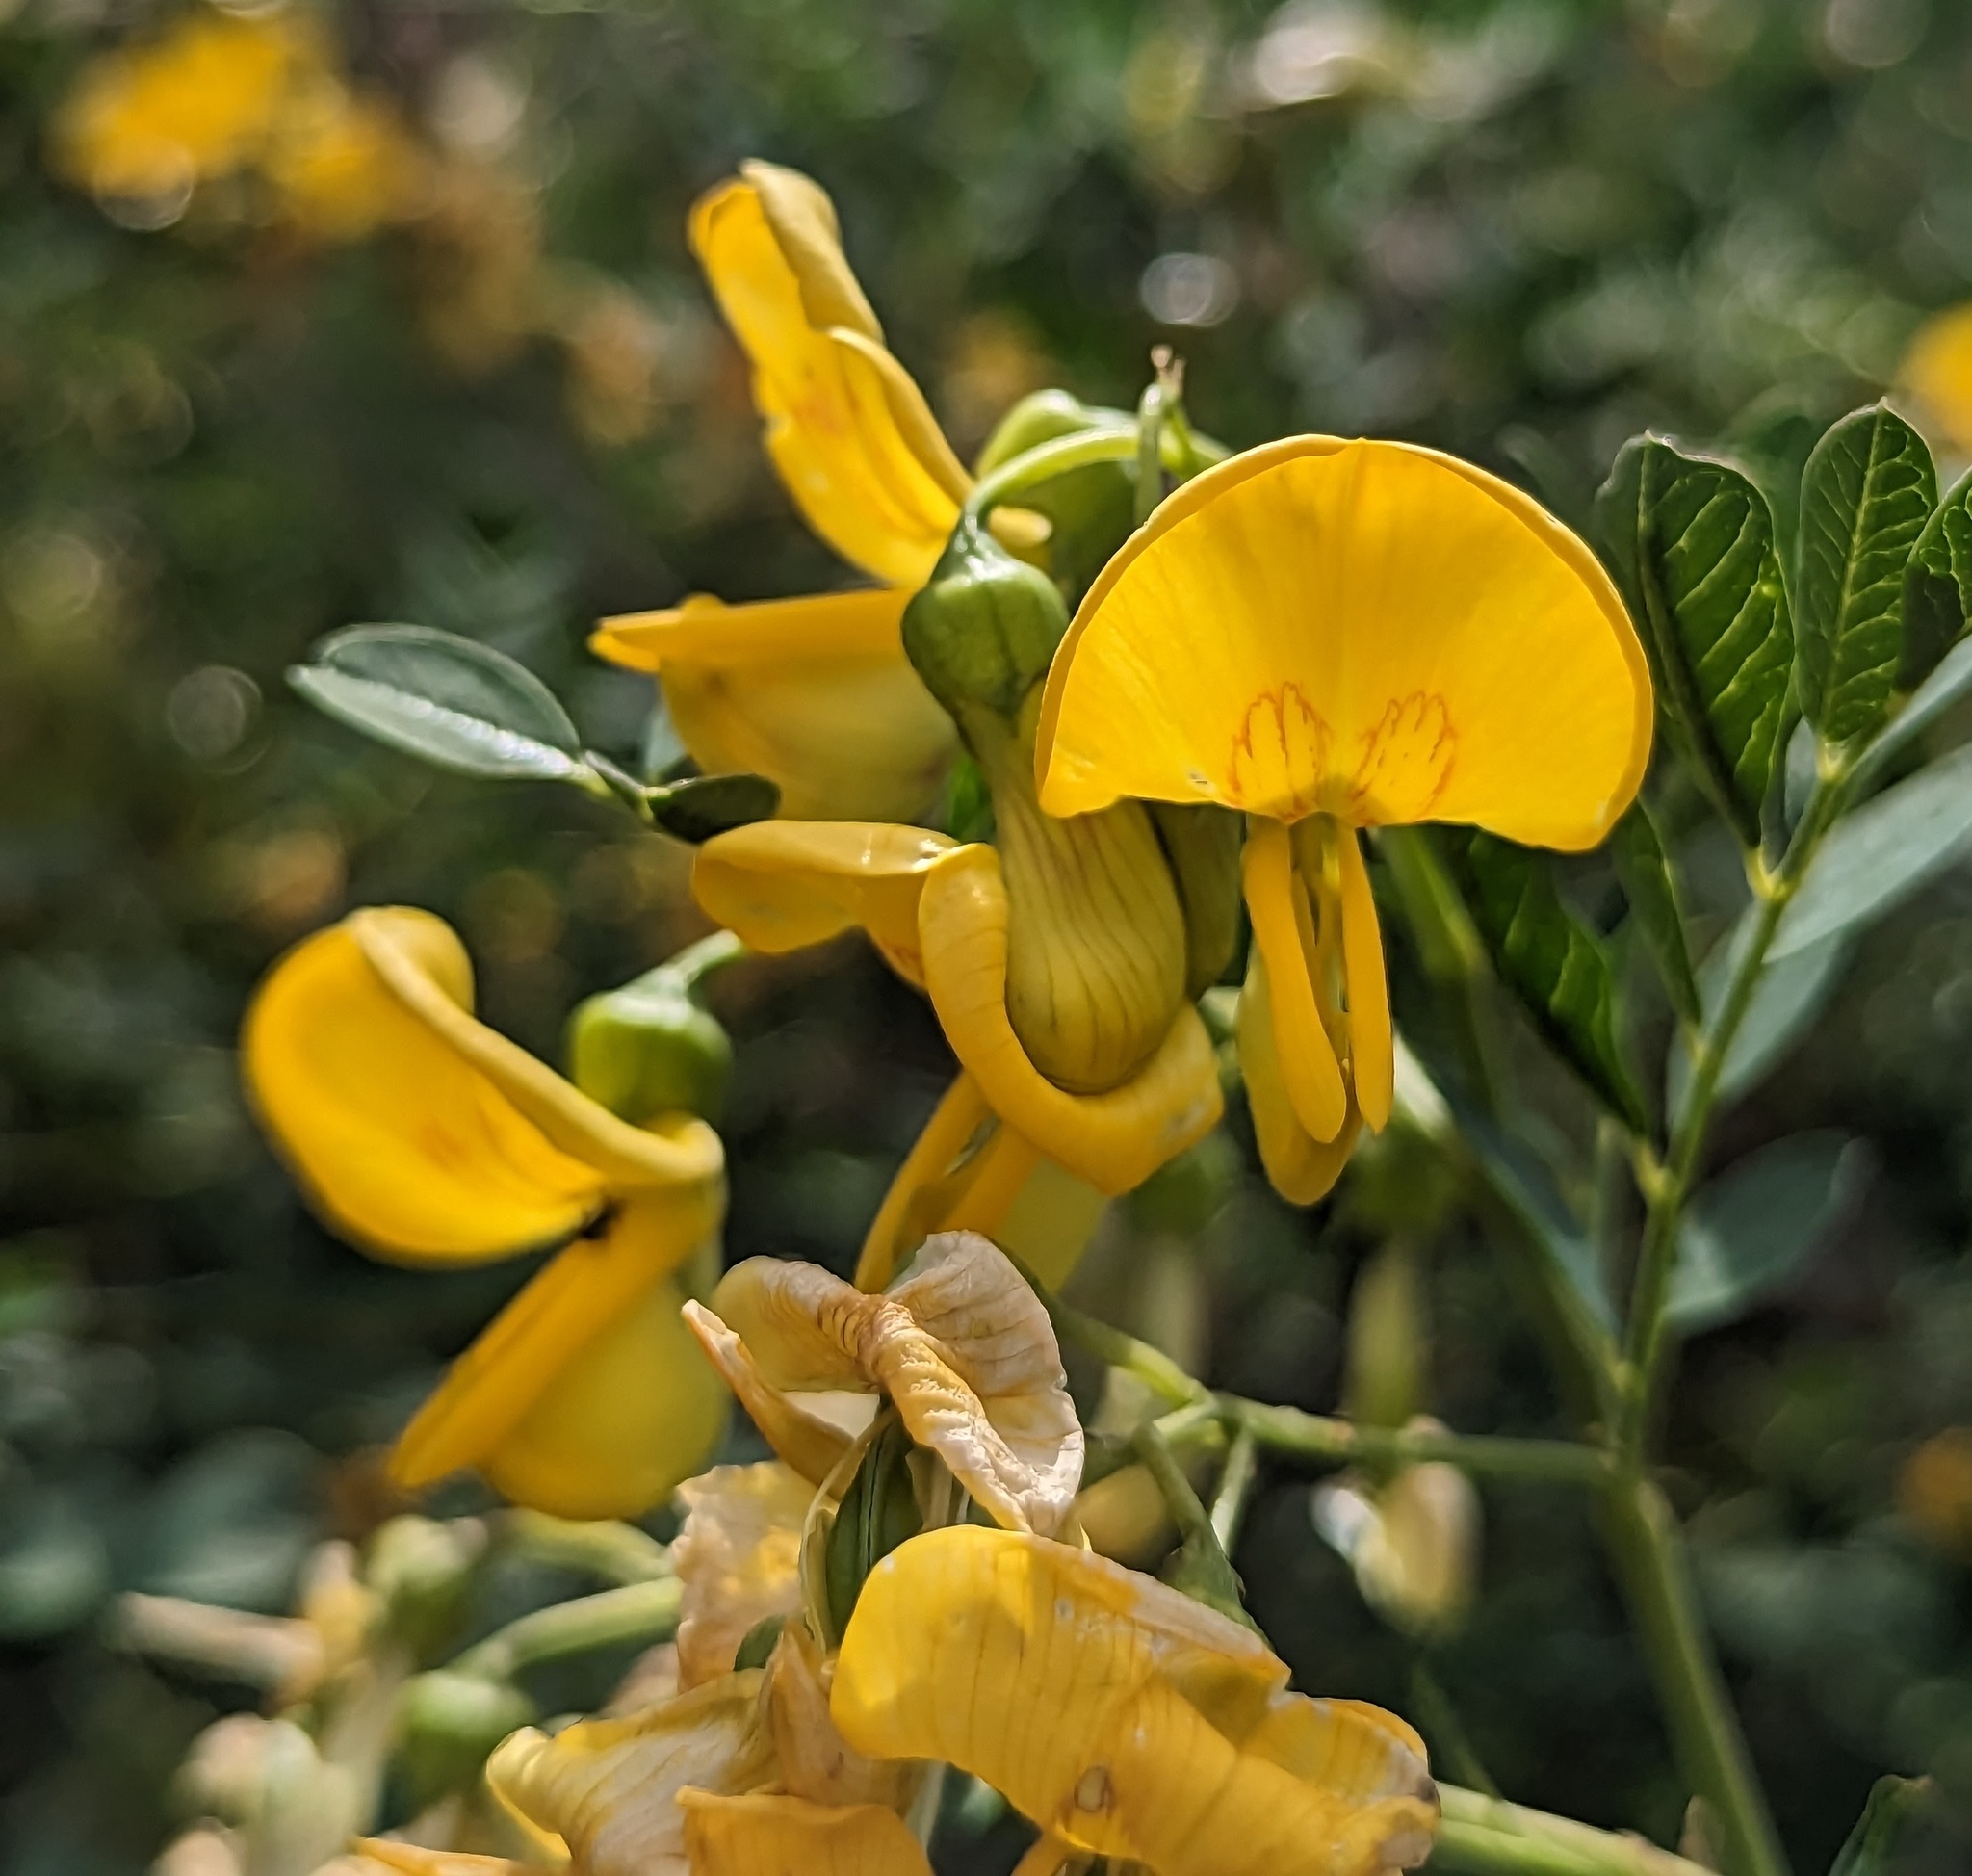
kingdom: Plantae
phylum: Tracheophyta
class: Magnoliopsida
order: Fabales
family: Fabaceae
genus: Colutea
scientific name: Colutea cilicica
